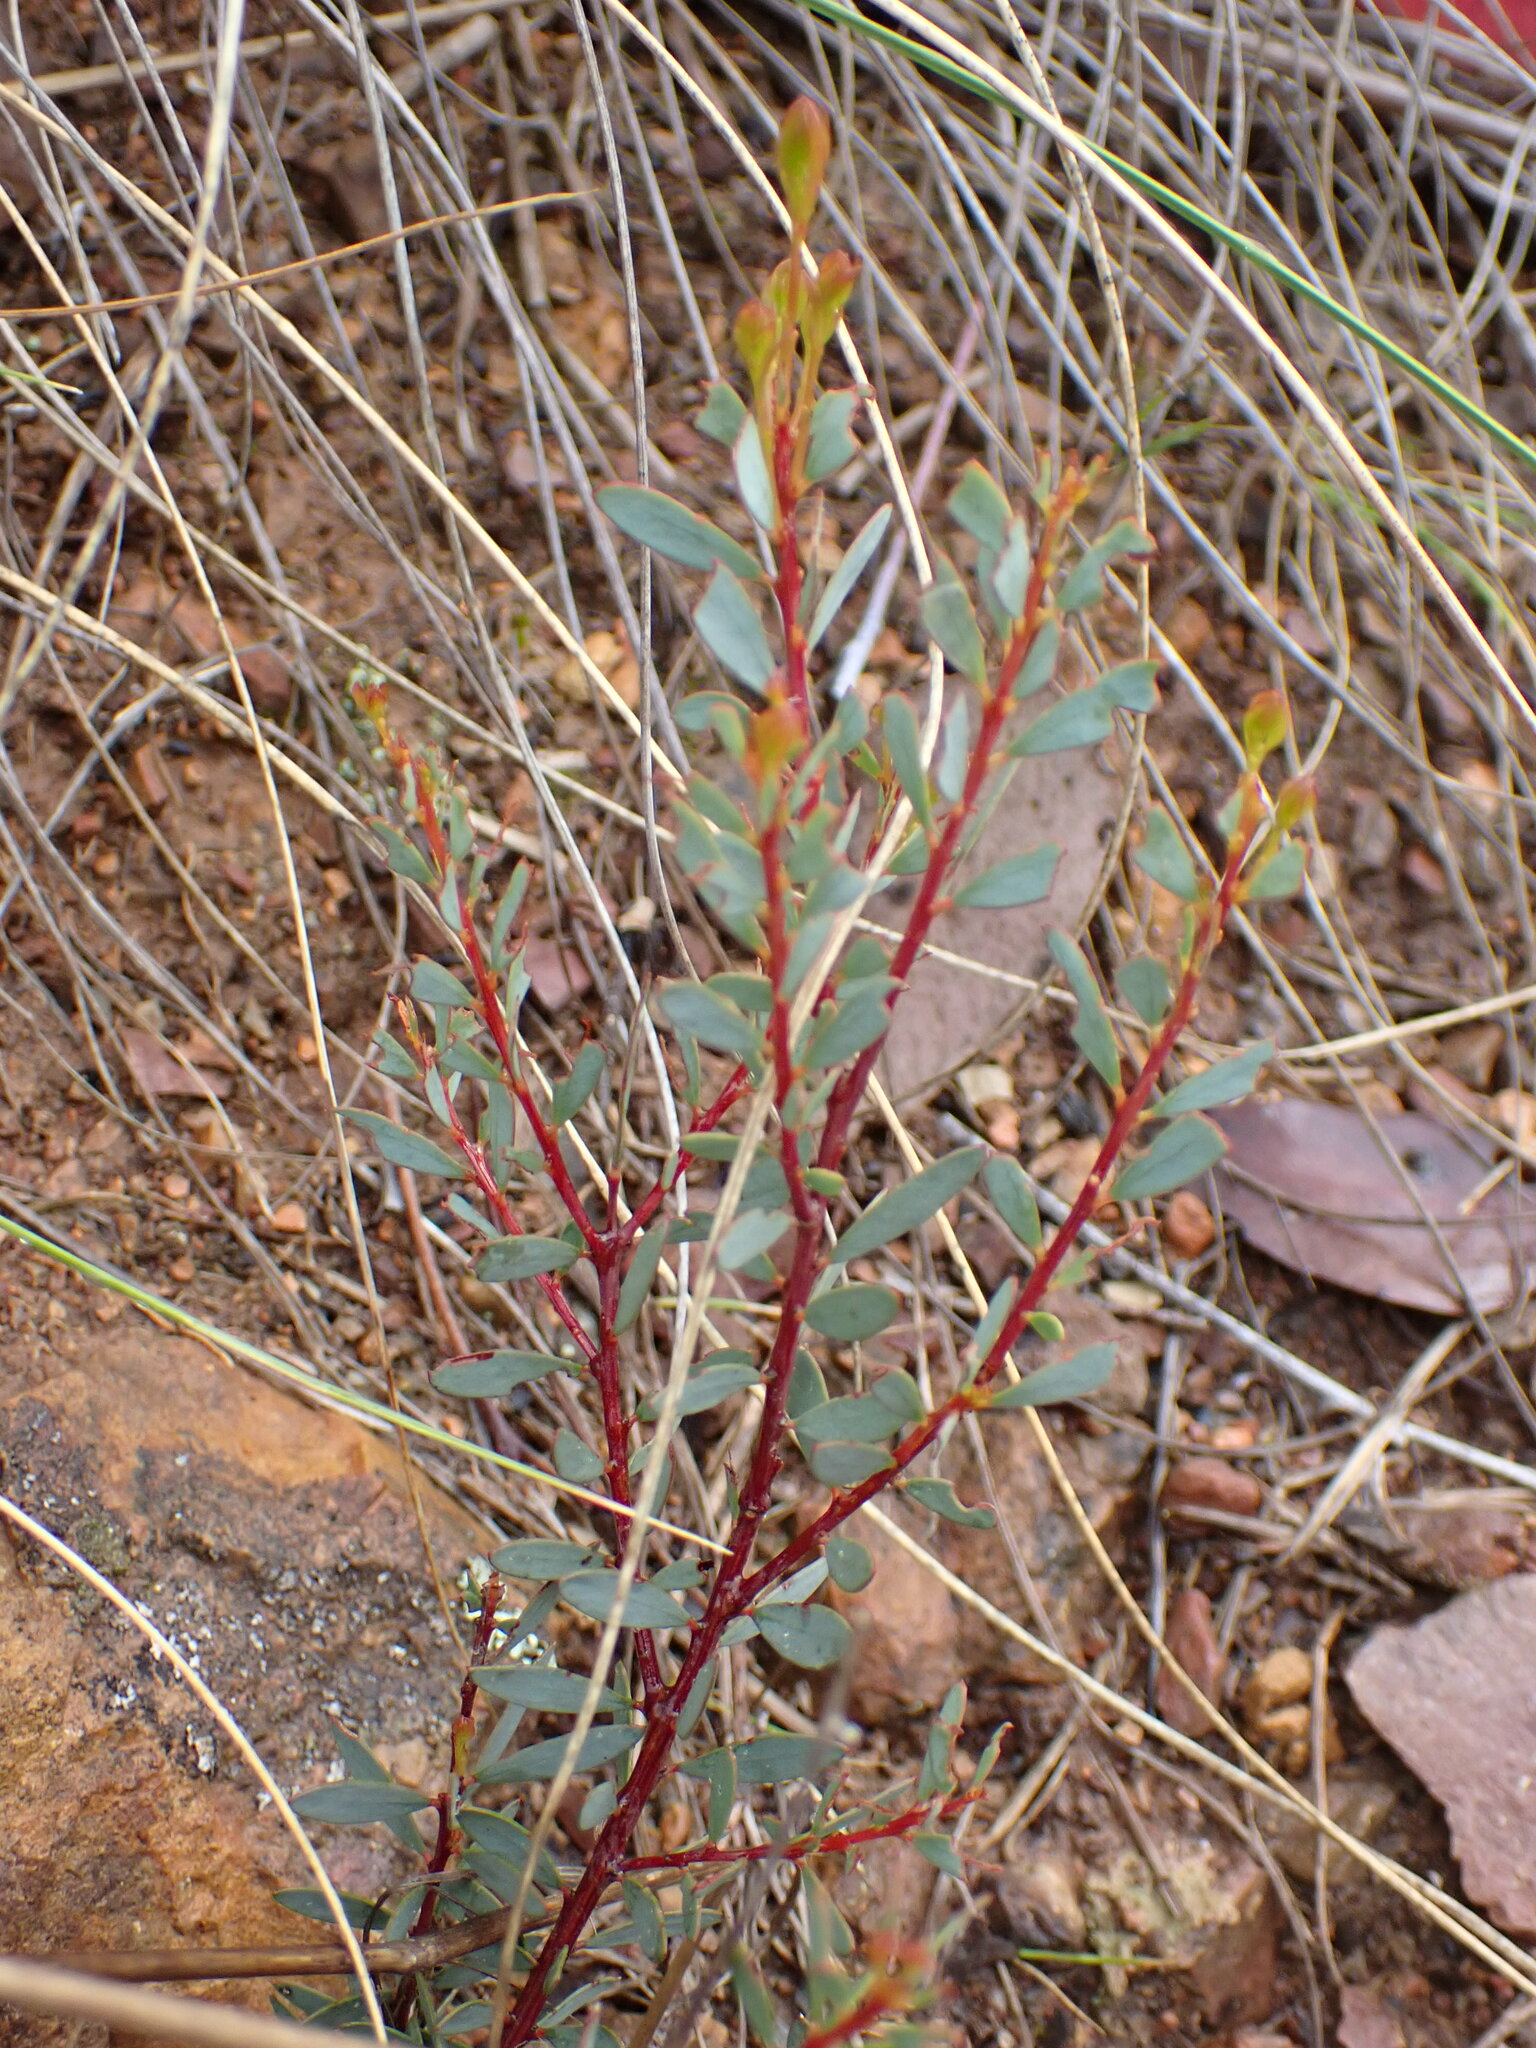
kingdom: Plantae
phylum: Tracheophyta
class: Magnoliopsida
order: Fabales
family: Fabaceae
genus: Acacia
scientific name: Acacia buxifolia
